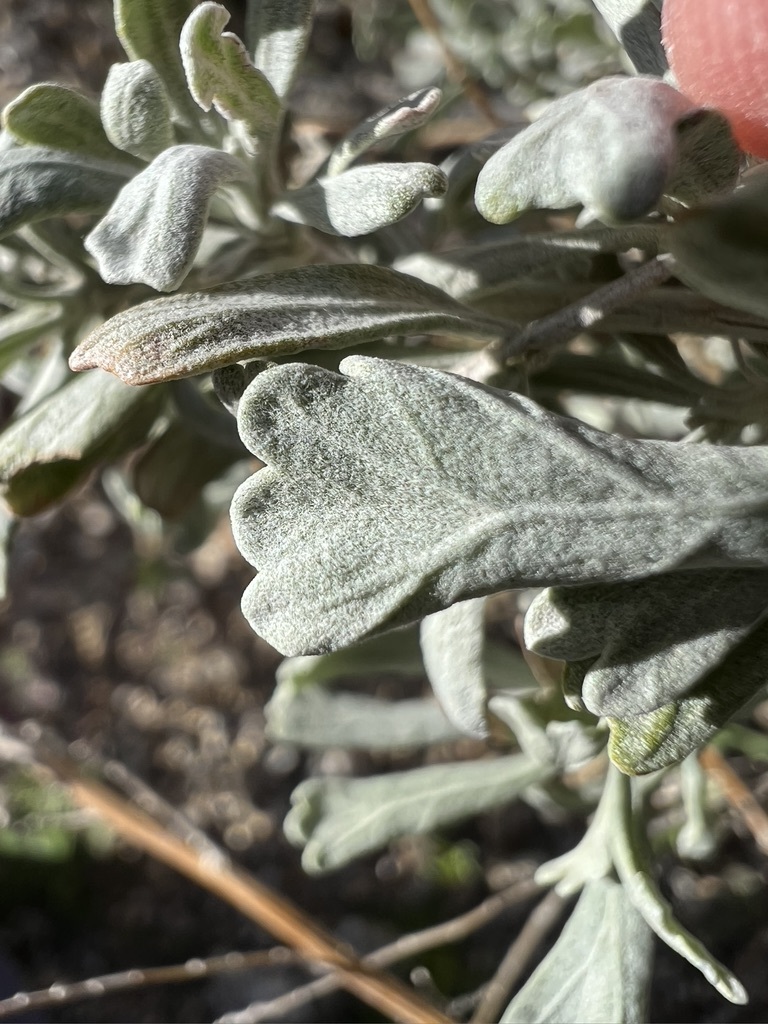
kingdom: Plantae
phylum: Tracheophyta
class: Magnoliopsida
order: Asterales
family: Asteraceae
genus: Artemisia
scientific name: Artemisia tridentata
